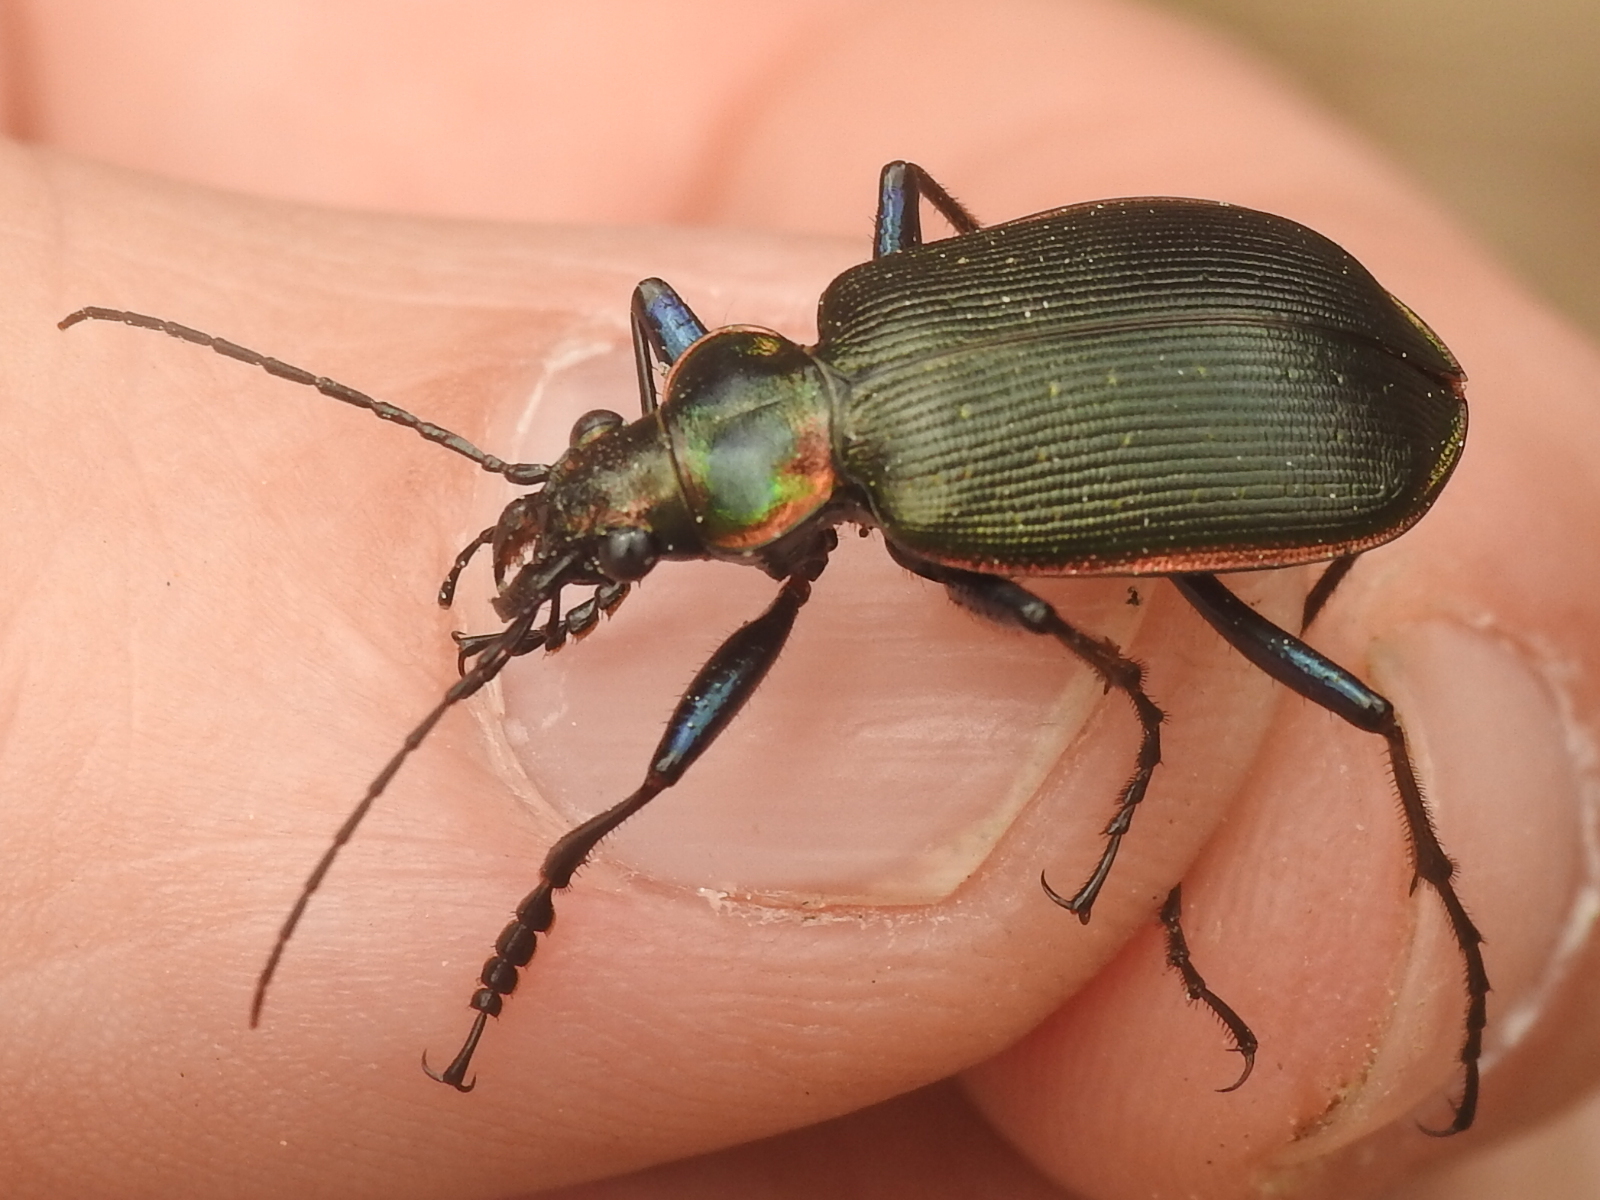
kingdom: Animalia
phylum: Arthropoda
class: Insecta
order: Coleoptera
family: Carabidae
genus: Calosoma
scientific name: Calosoma wilcoxi
